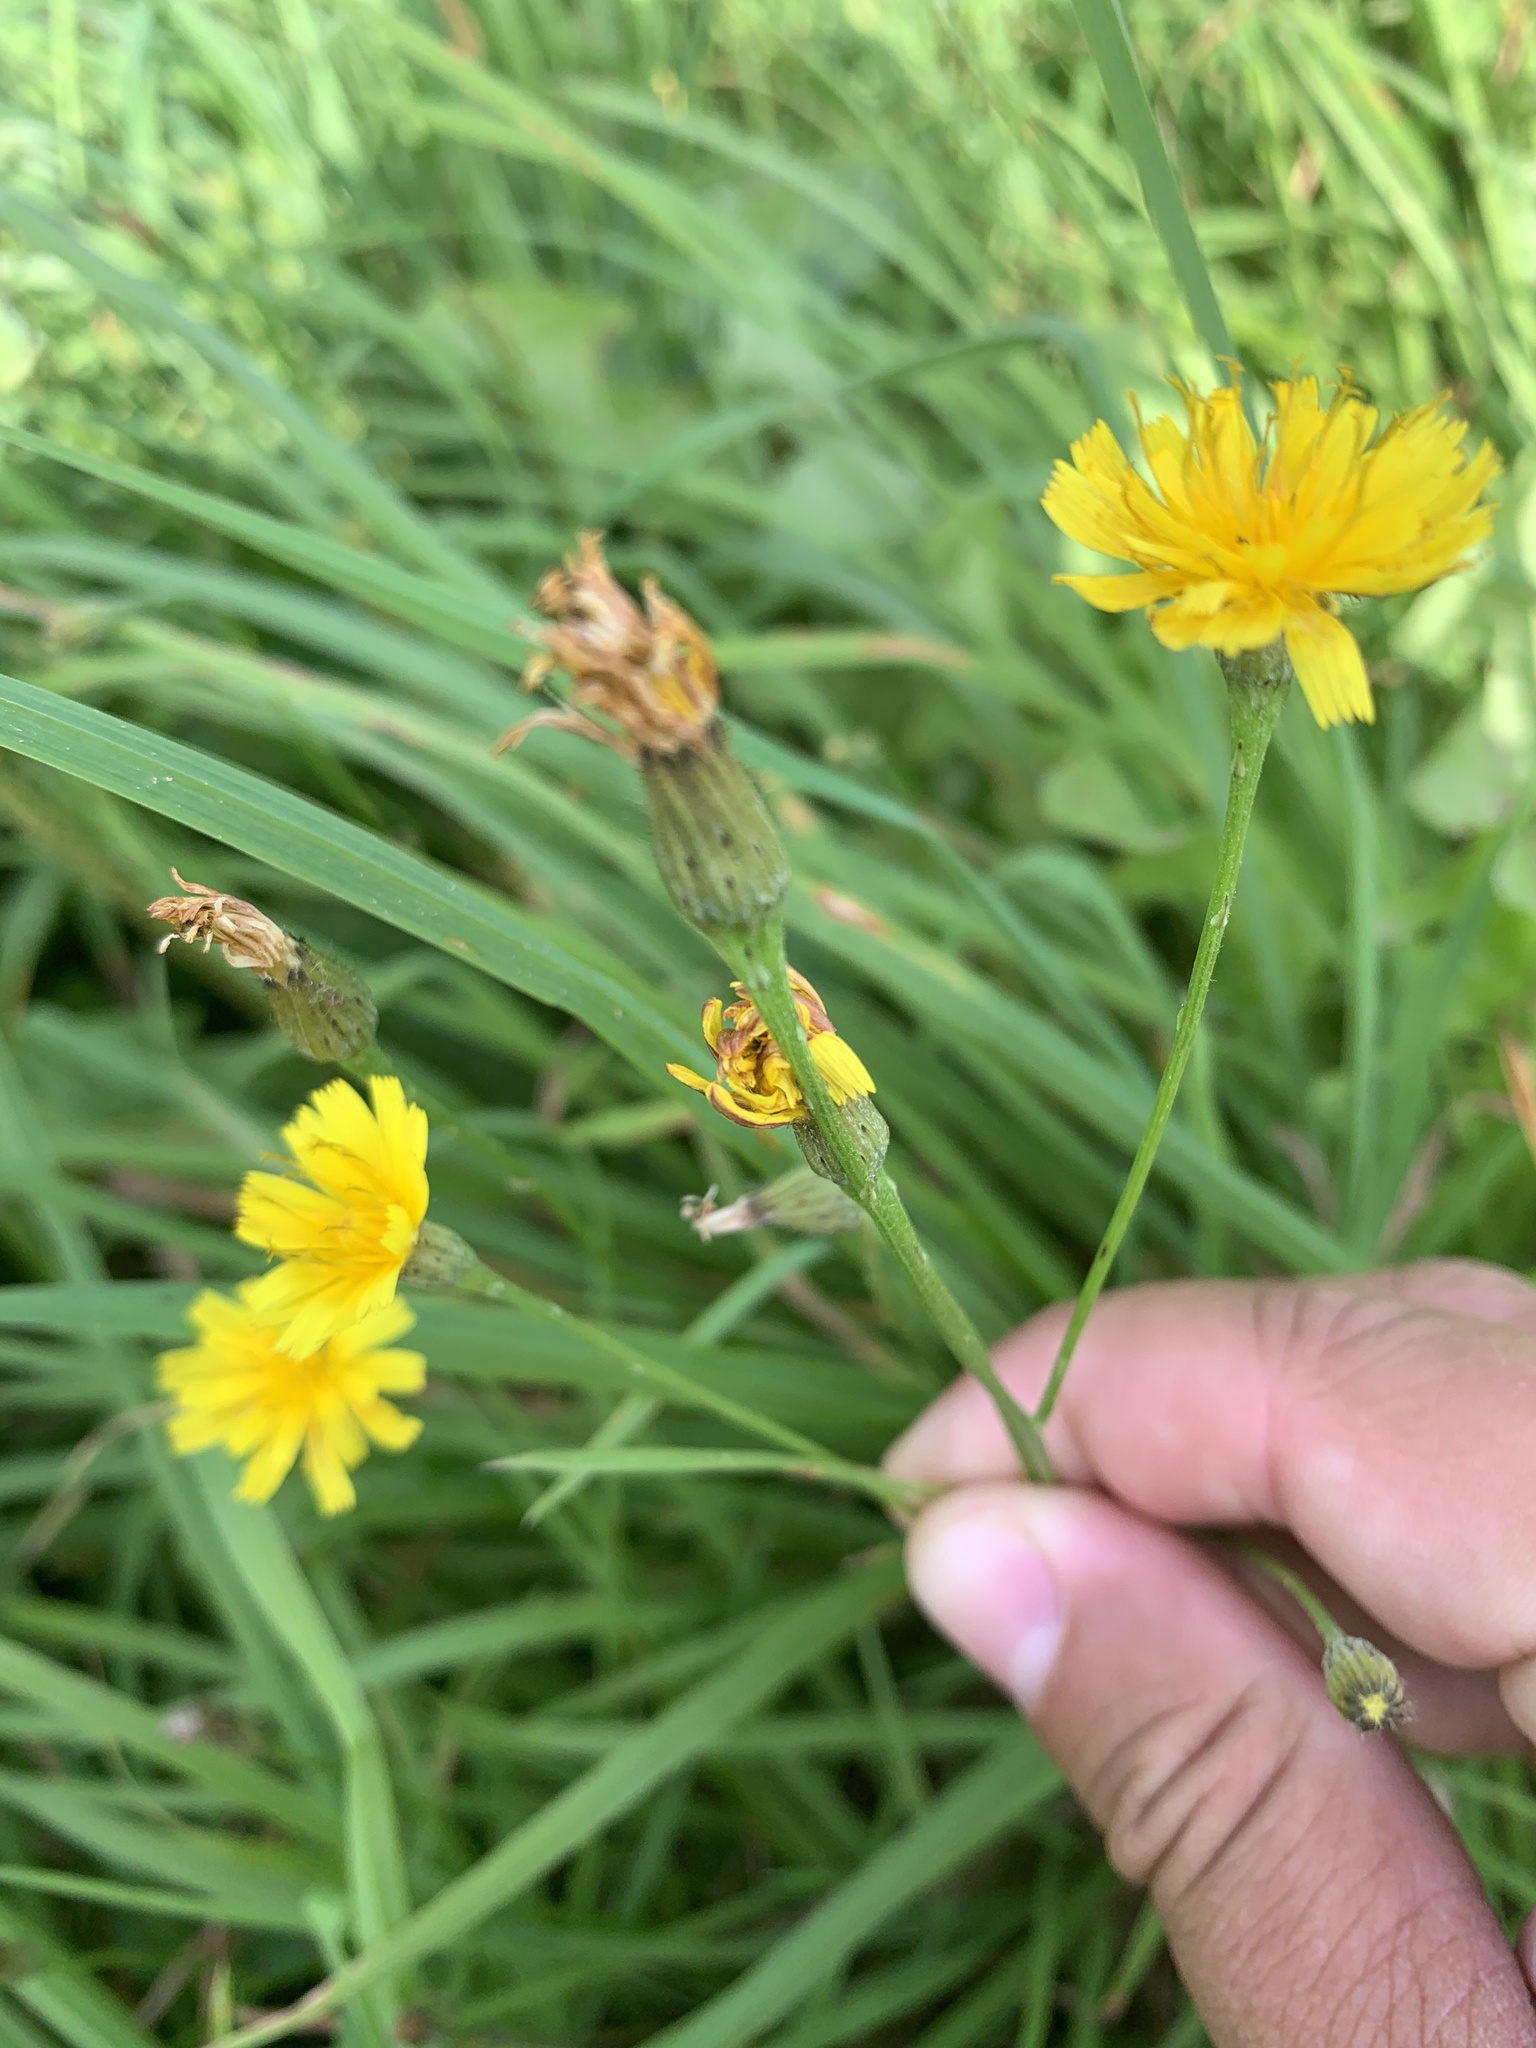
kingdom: Plantae
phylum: Tracheophyta
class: Magnoliopsida
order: Asterales
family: Asteraceae
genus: Scorzoneroides
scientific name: Scorzoneroides autumnalis
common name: Autumn hawkbit
